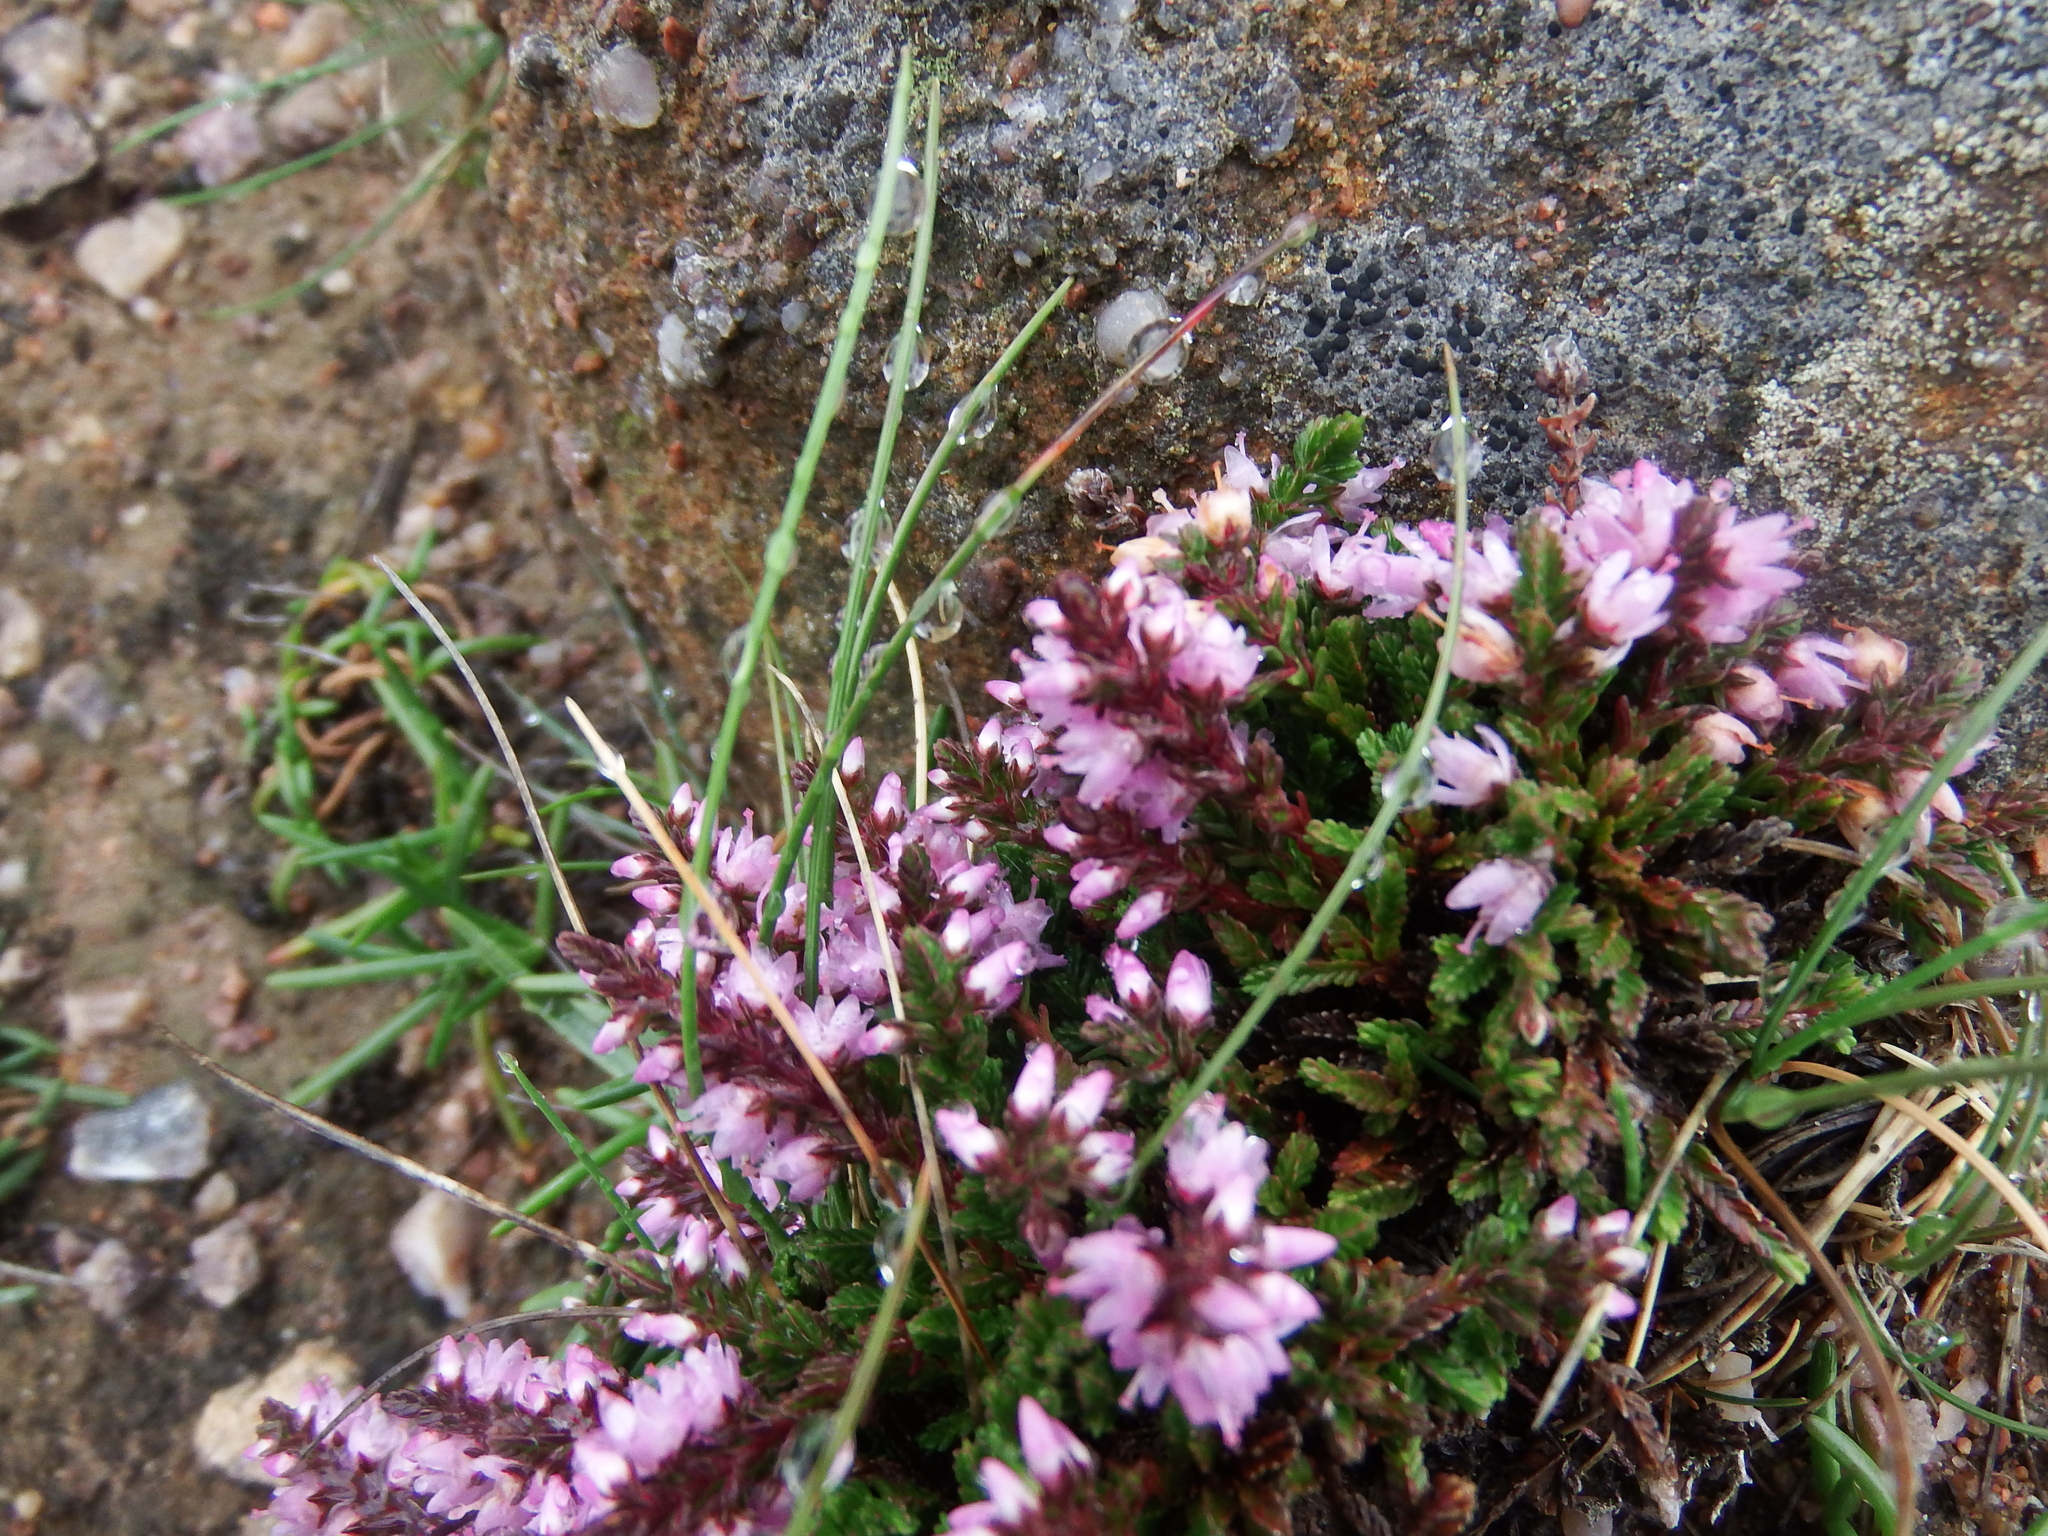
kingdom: Plantae
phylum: Tracheophyta
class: Magnoliopsida
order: Ericales
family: Ericaceae
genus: Calluna
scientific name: Calluna vulgaris
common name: Heather
